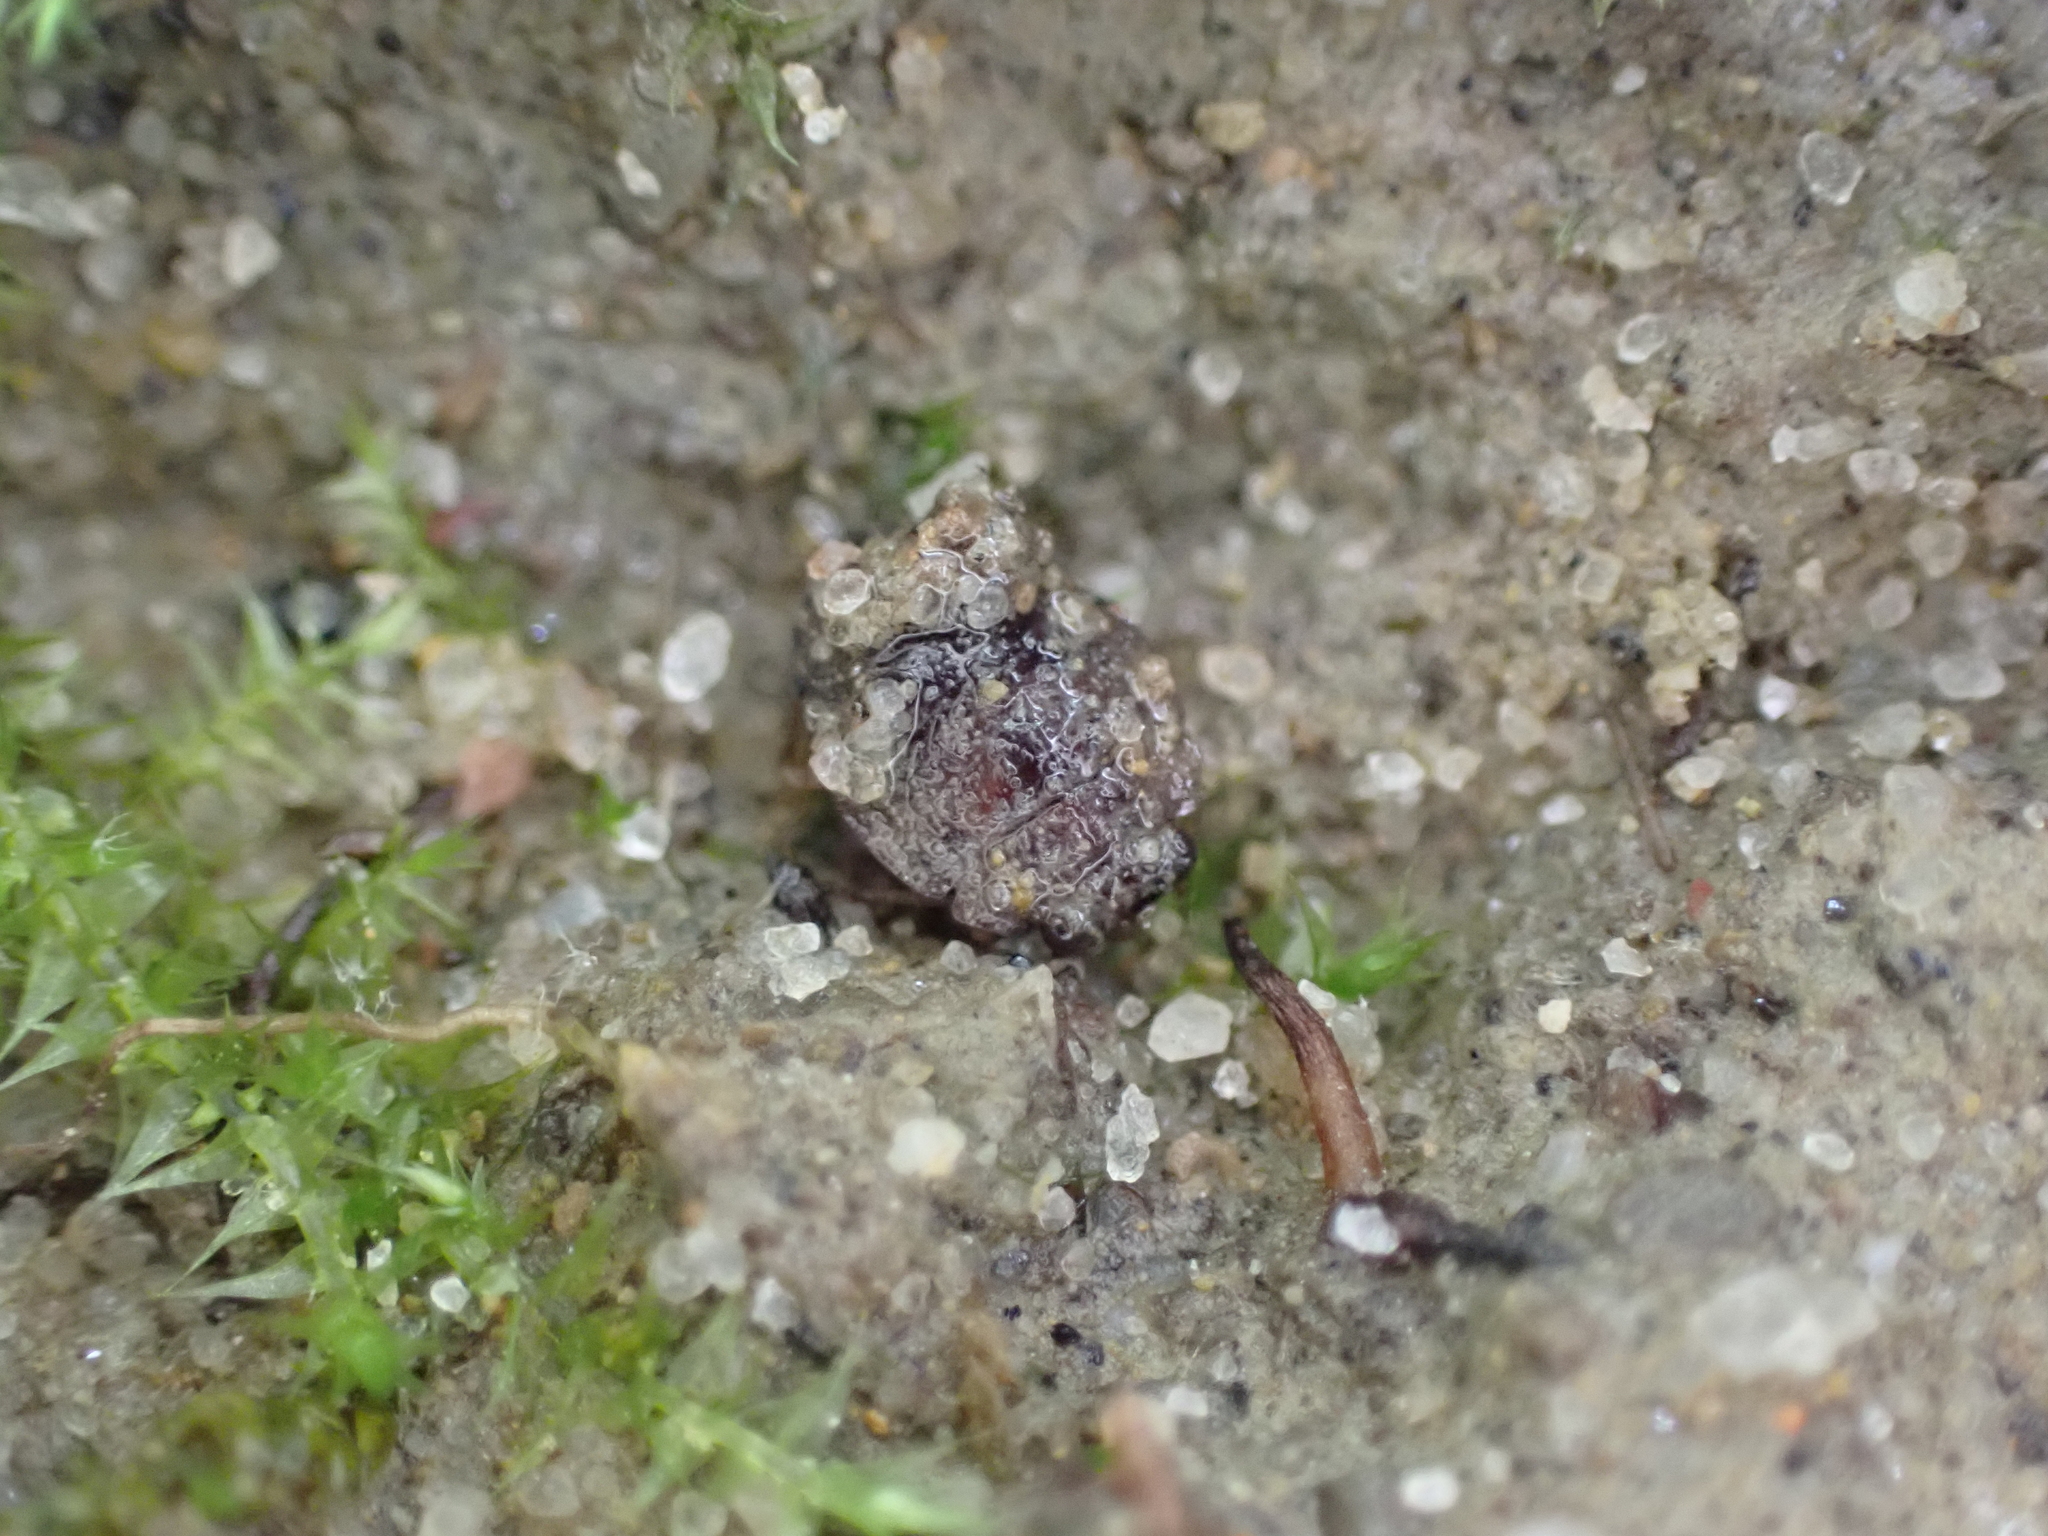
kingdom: Animalia
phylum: Arthropoda
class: Insecta
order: Hemiptera
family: Gelastocoridae
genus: Gelastocoris
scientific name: Gelastocoris oculatus
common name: Toad bug
